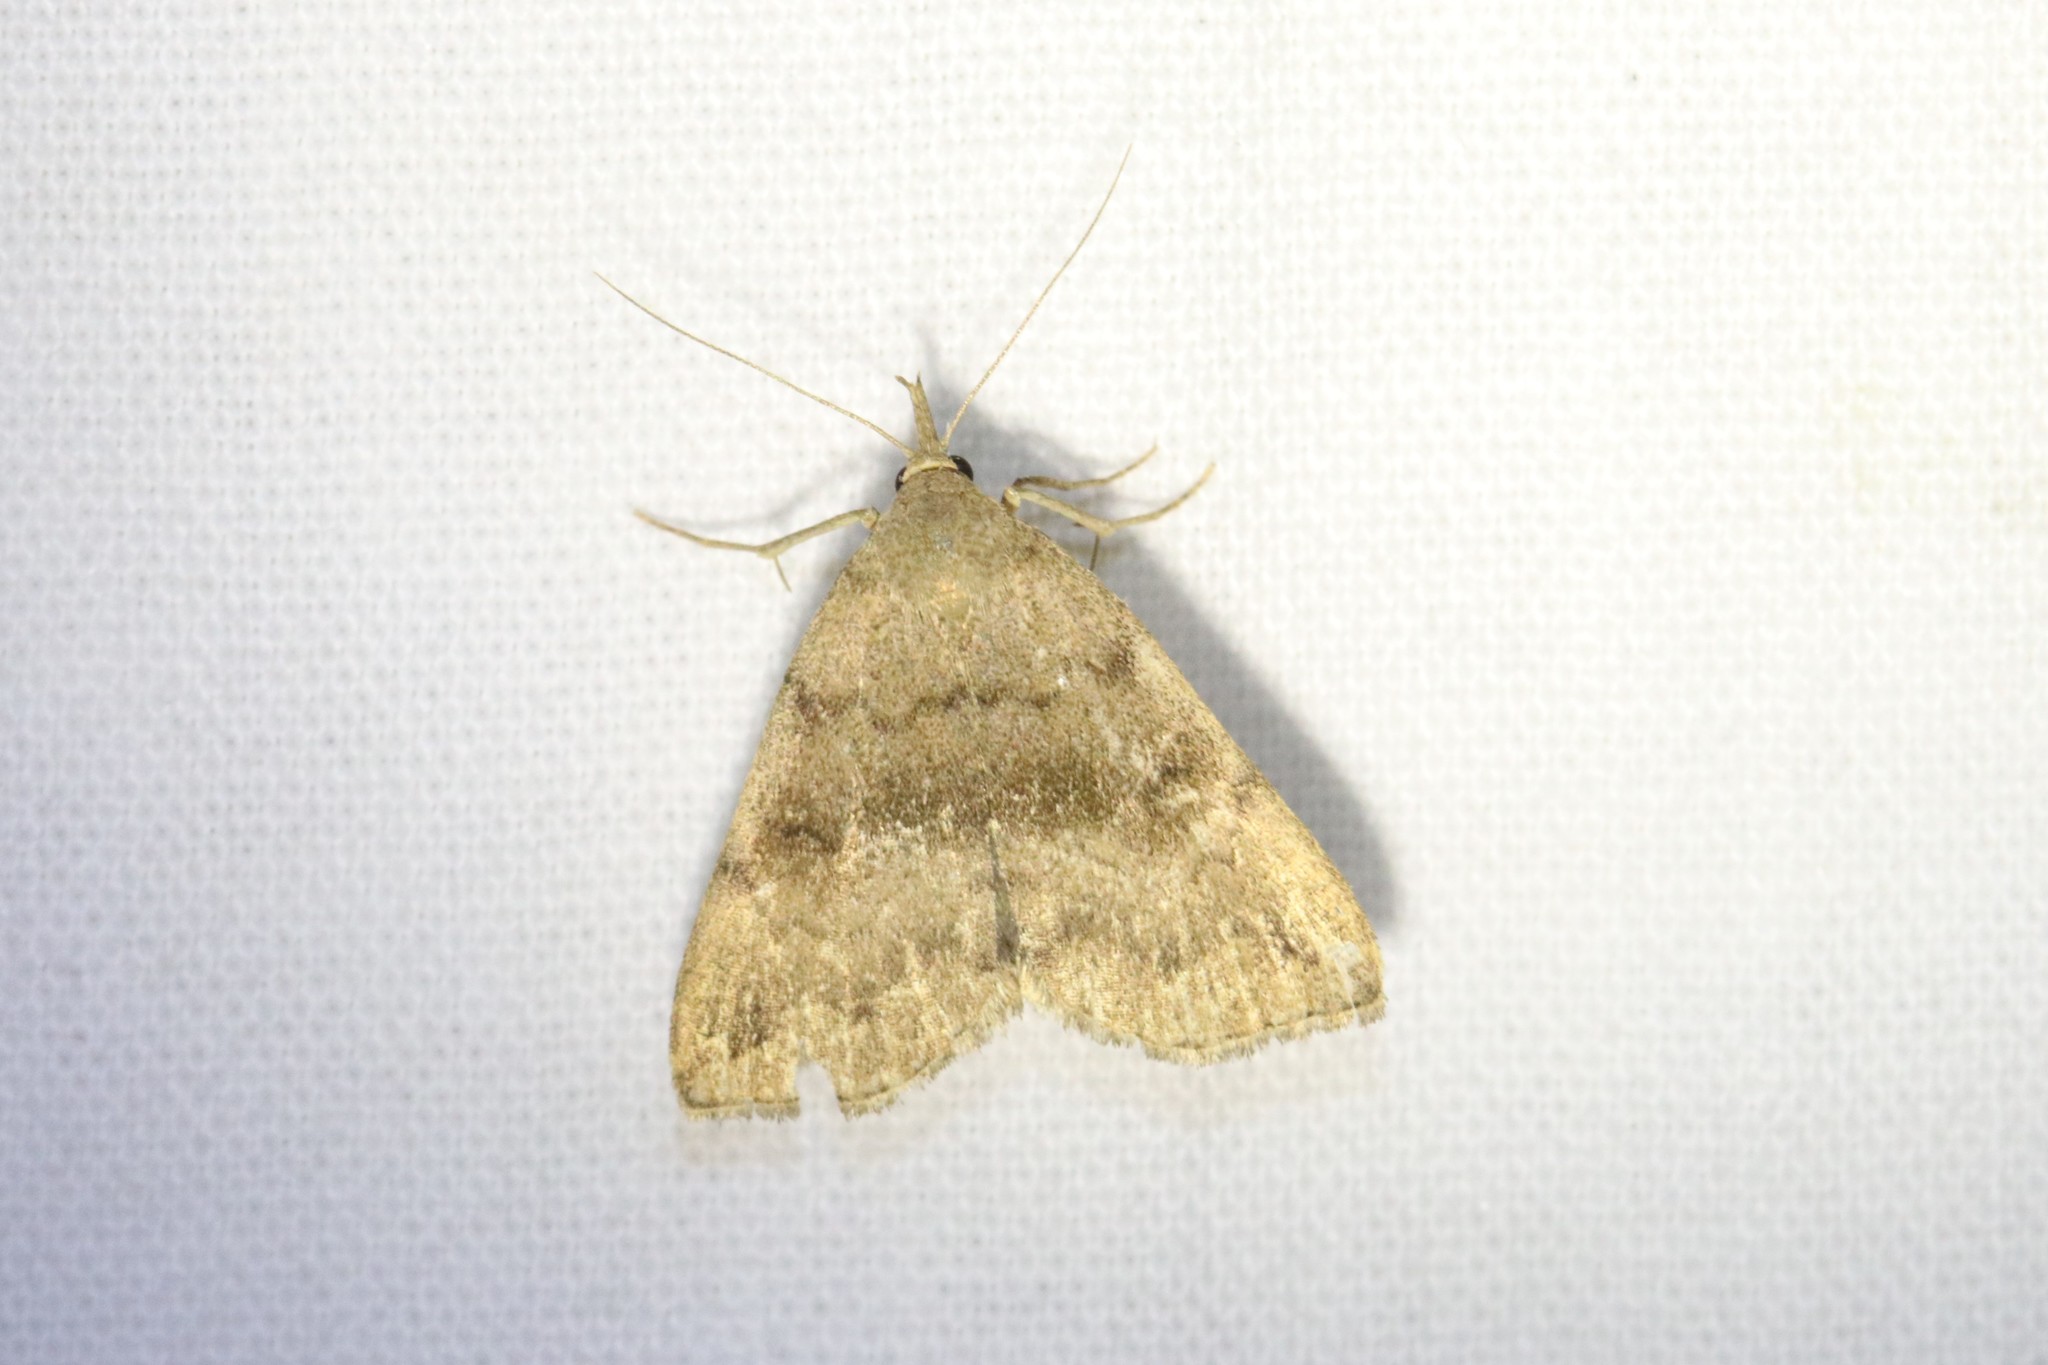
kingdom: Animalia
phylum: Arthropoda
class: Insecta
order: Lepidoptera
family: Erebidae
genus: Phalaenostola
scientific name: Phalaenostola eumelusalis
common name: Dark phalaenostola moth
